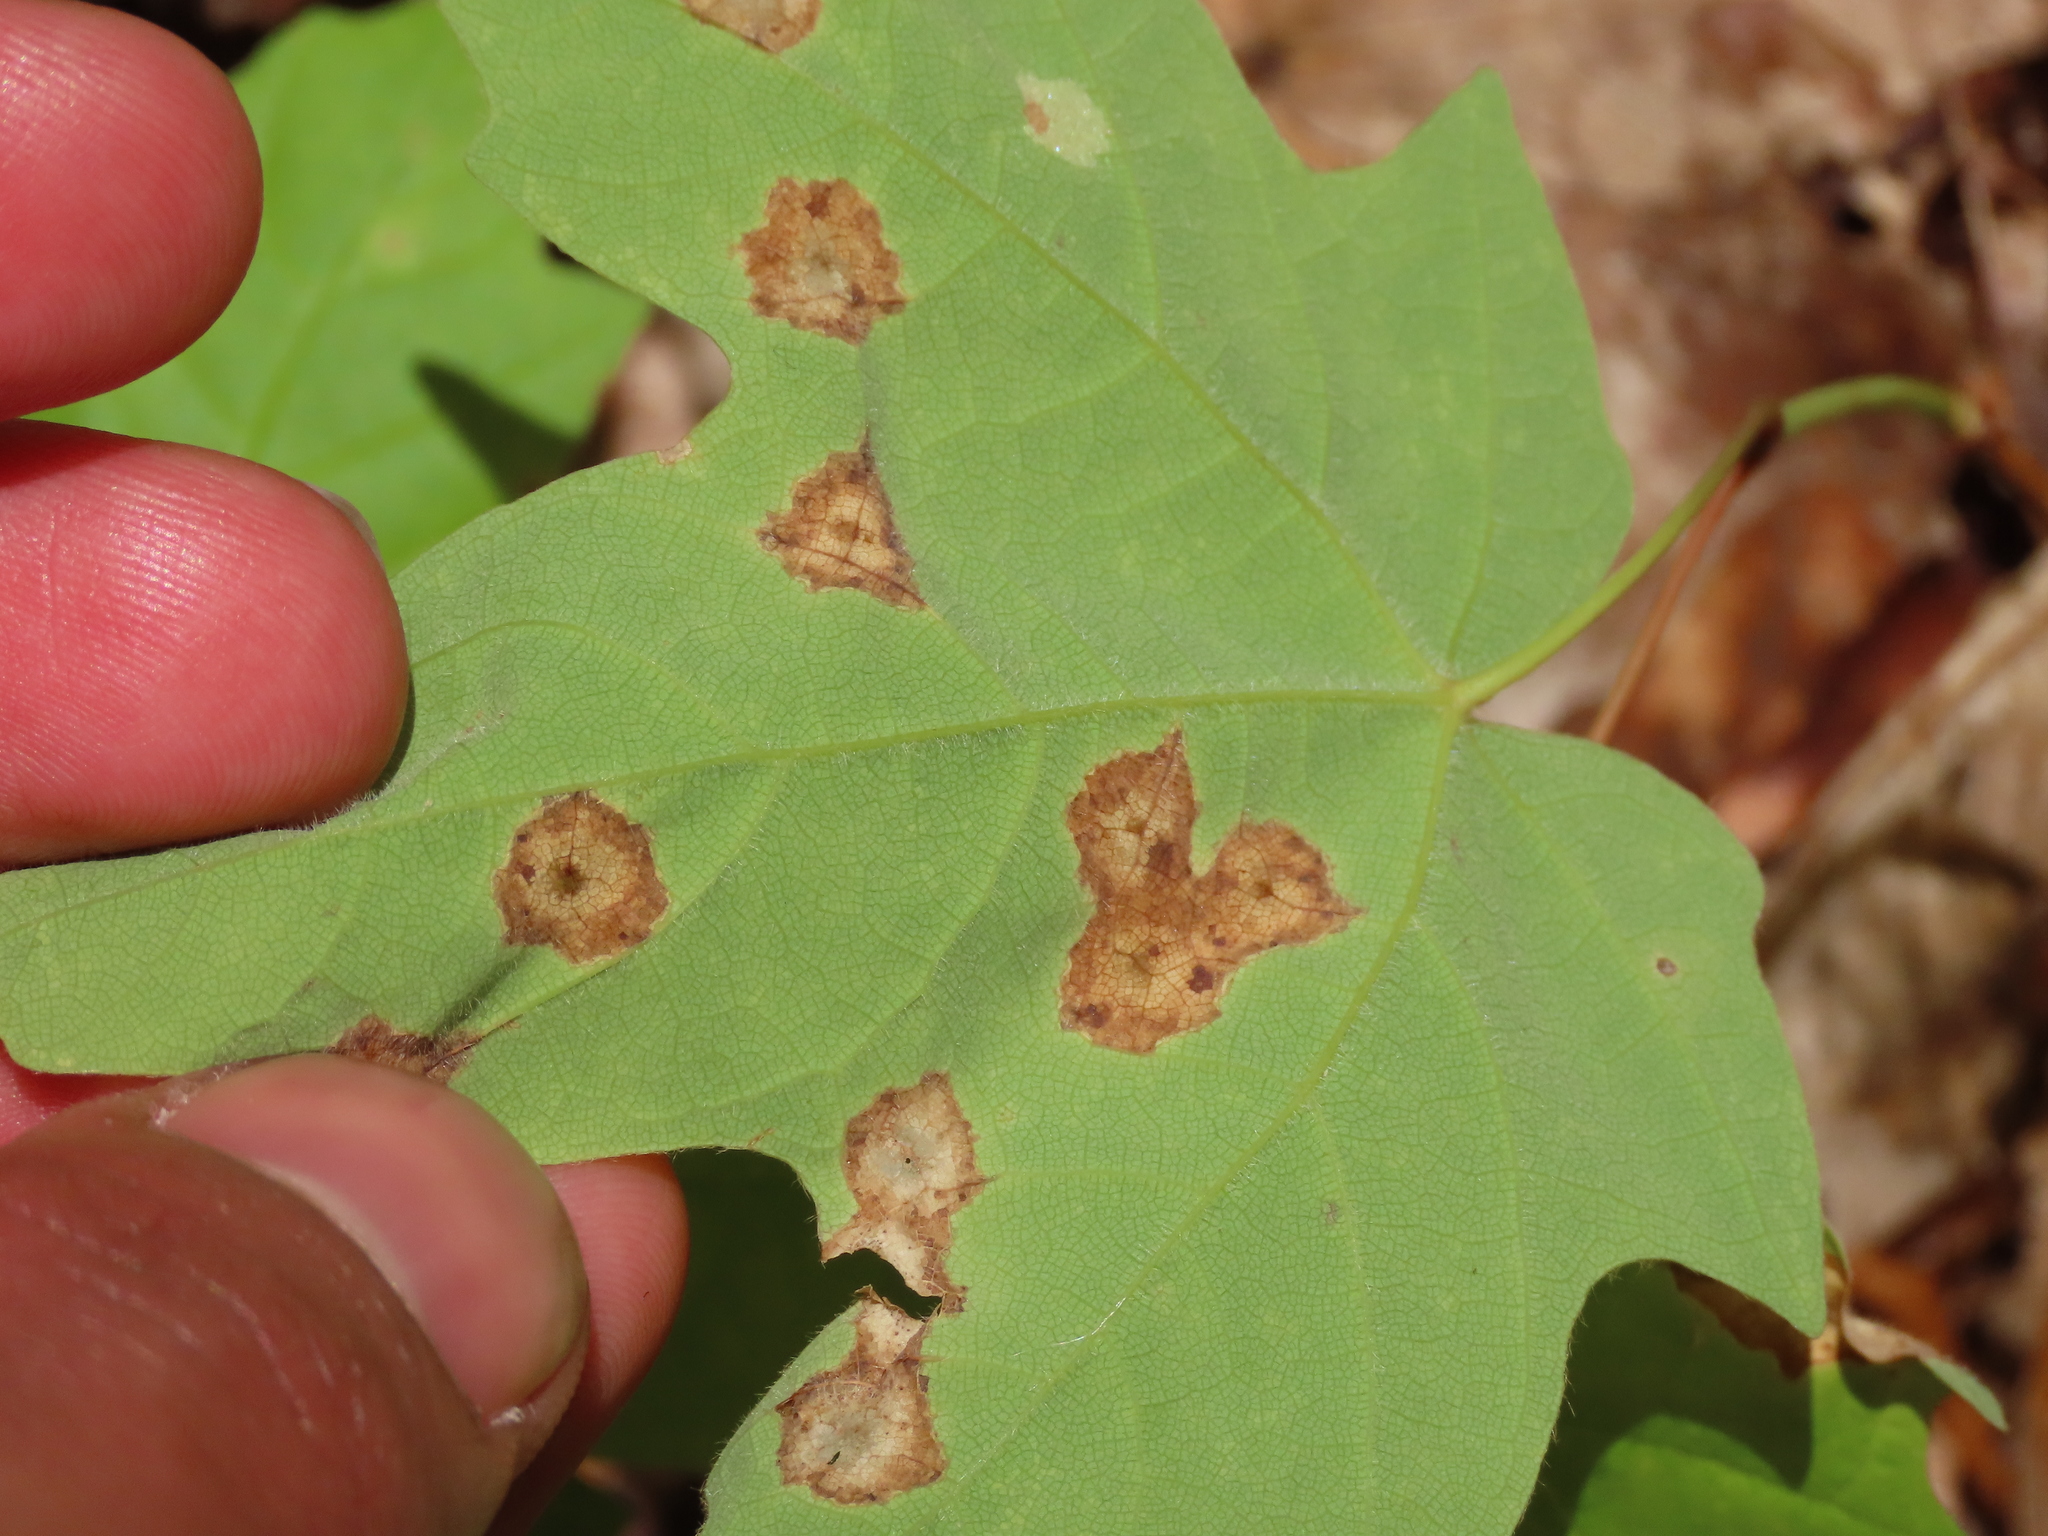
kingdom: Animalia
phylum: Arthropoda
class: Insecta
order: Diptera
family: Cecidomyiidae
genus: Acericecis
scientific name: Acericecis ocellaris
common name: Ocellate gall midge
